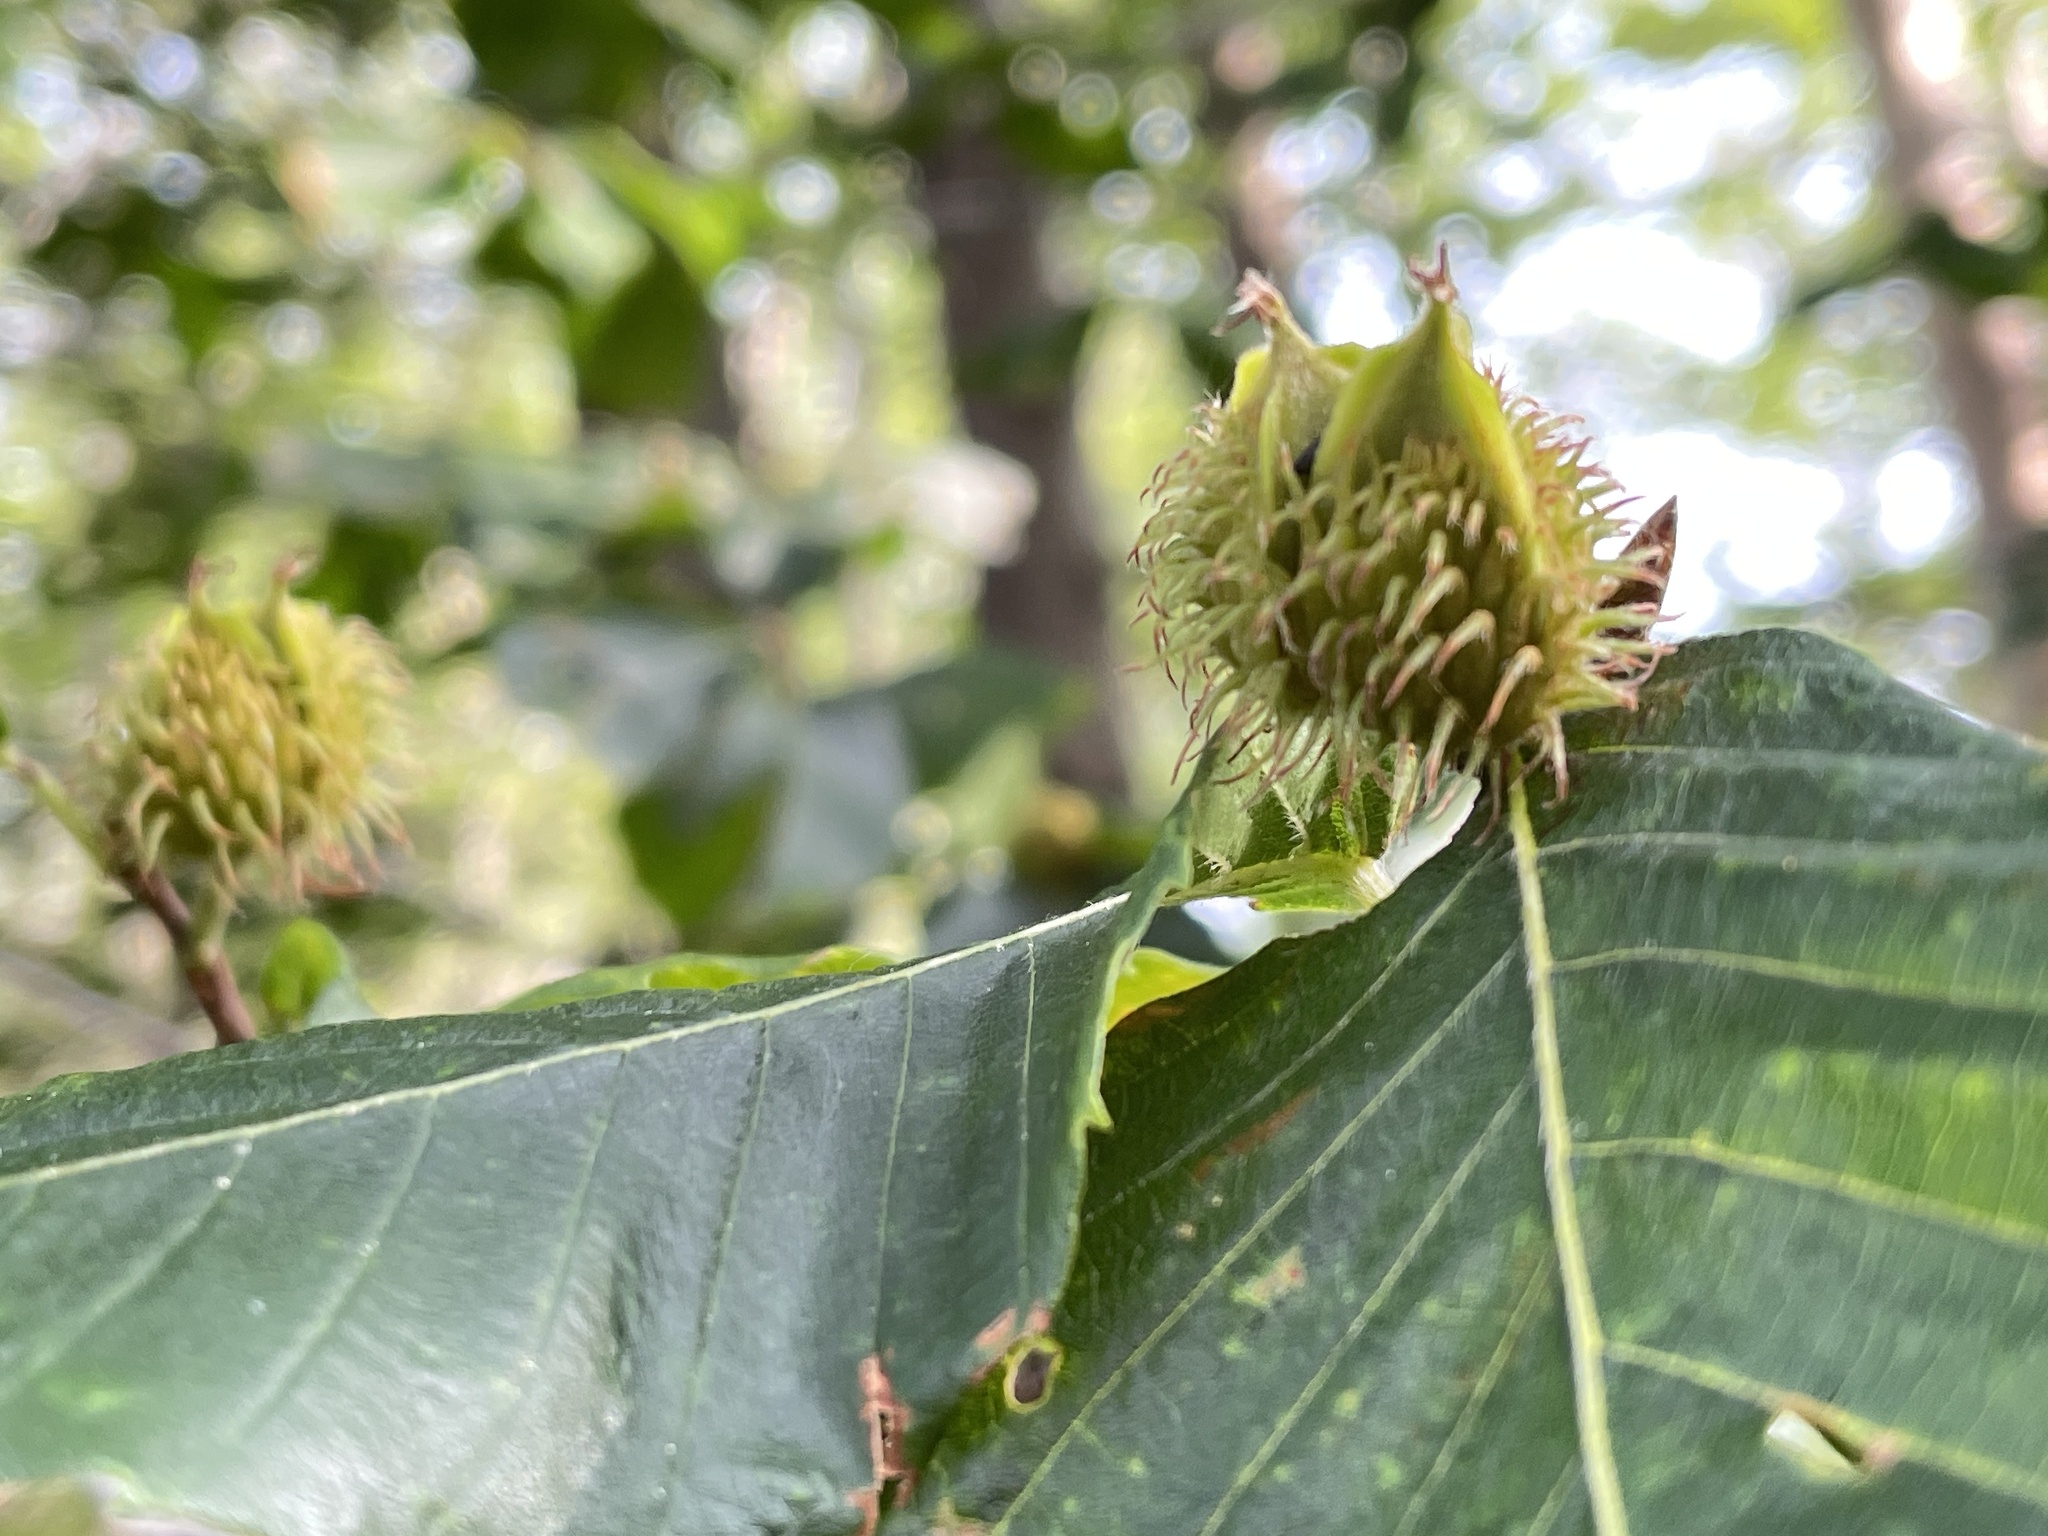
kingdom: Plantae
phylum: Tracheophyta
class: Magnoliopsida
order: Fagales
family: Fagaceae
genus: Fagus
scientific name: Fagus grandifolia
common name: American beech
